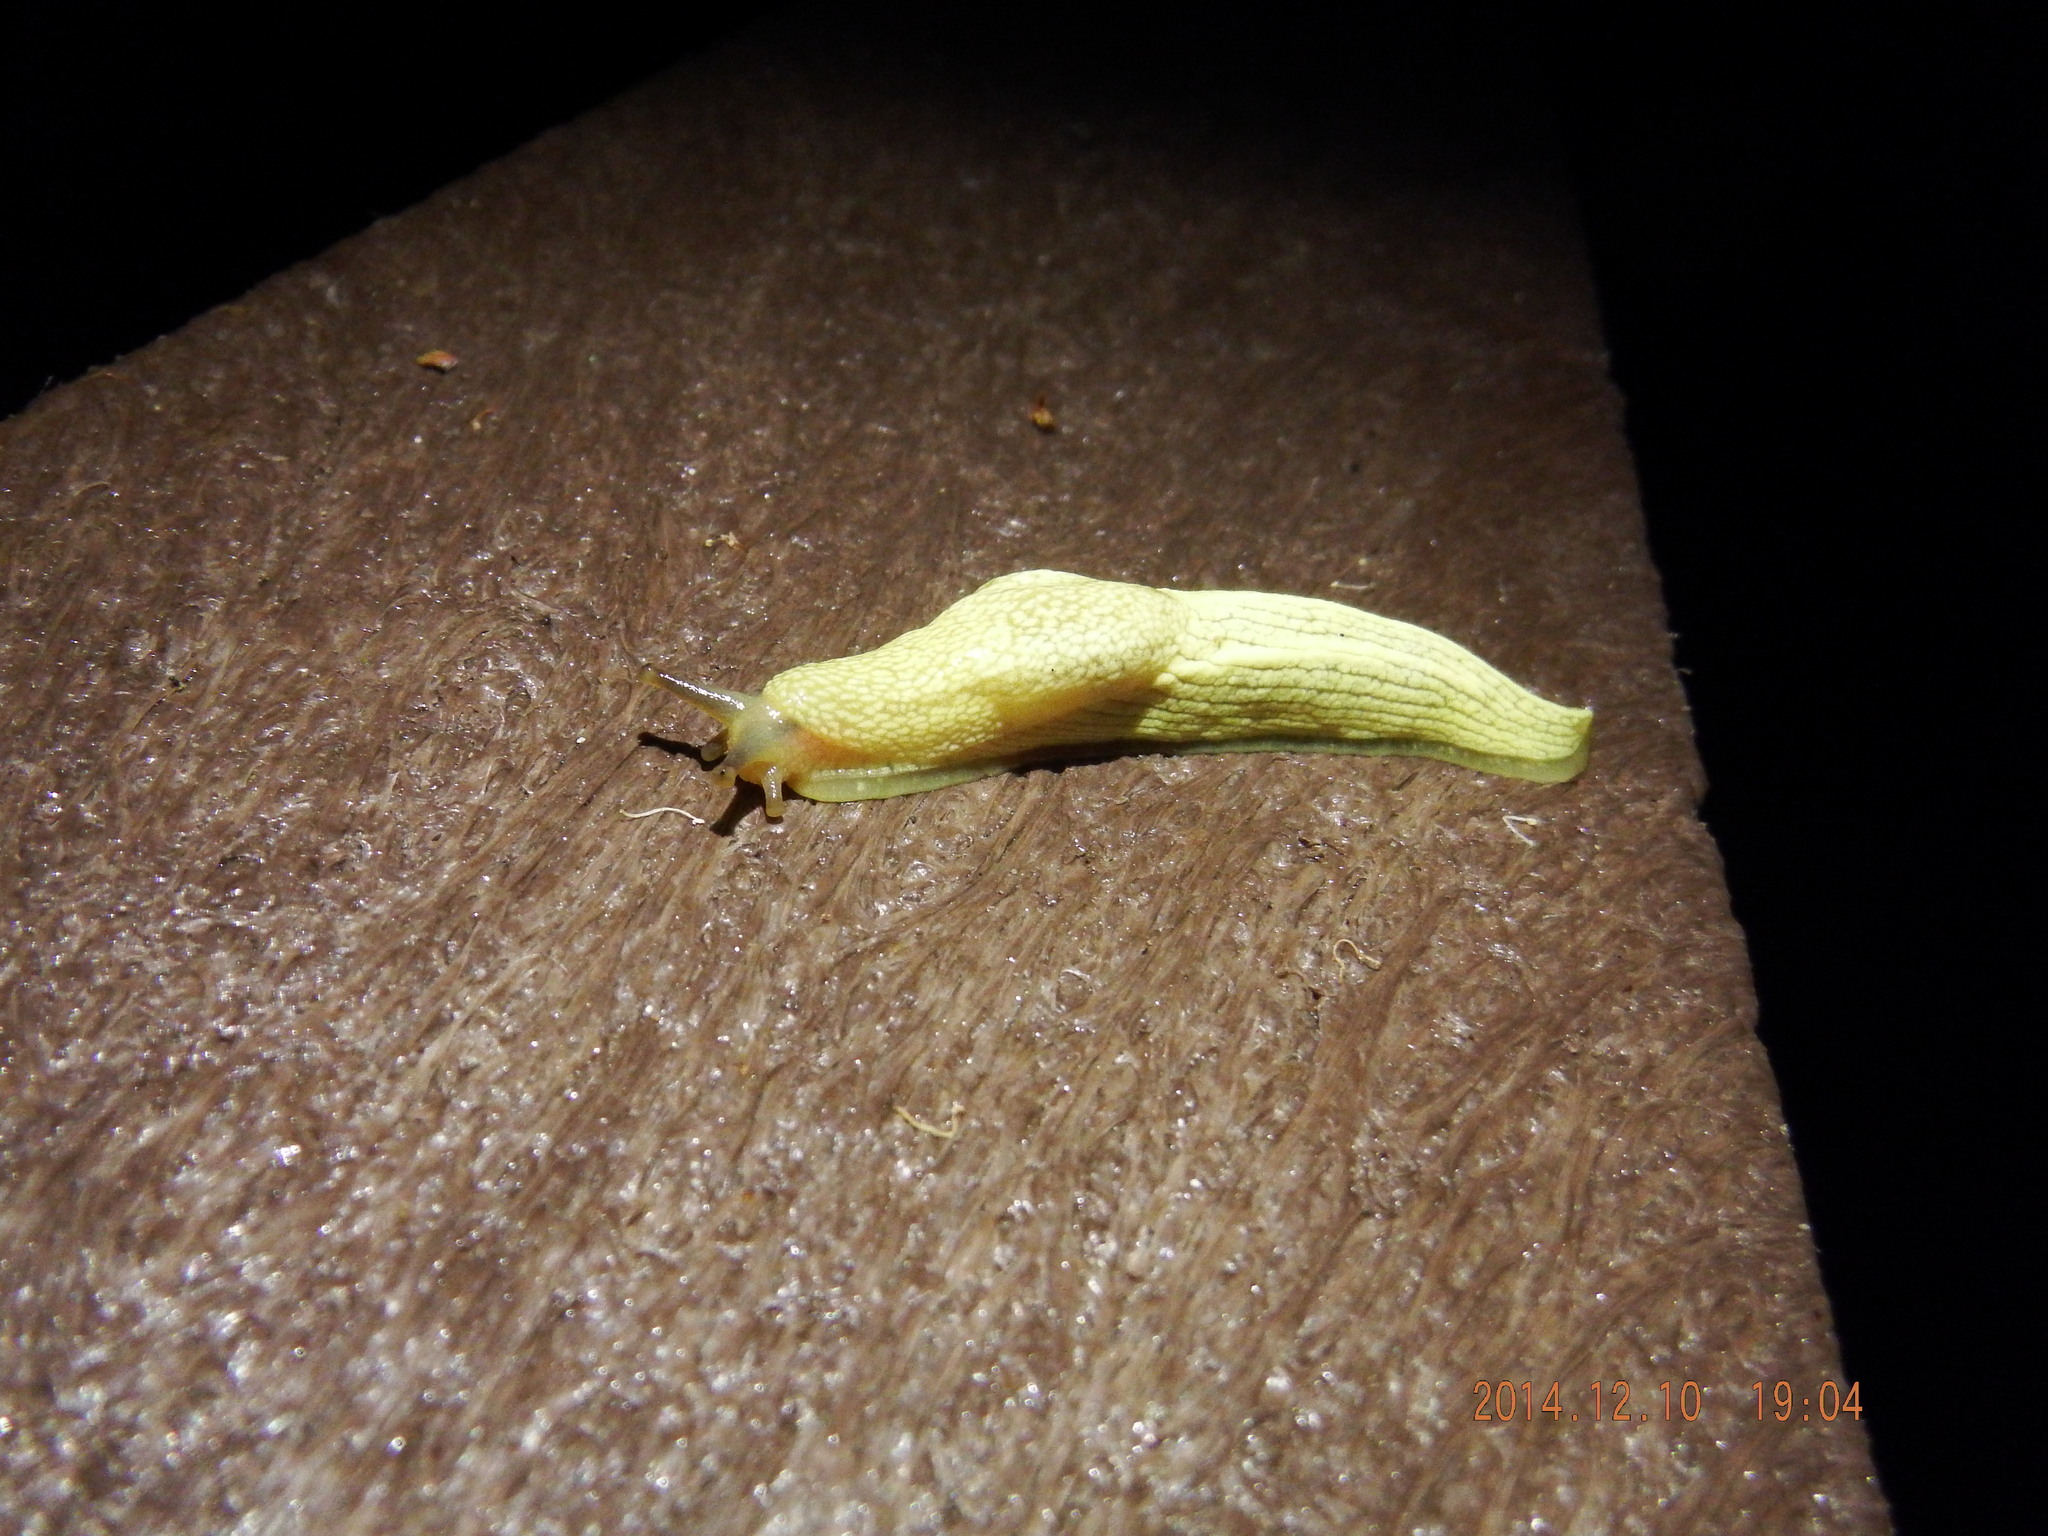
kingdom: Animalia
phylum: Mollusca
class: Gastropoda
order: Stylommatophora
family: Urocyclidae
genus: Elisolimax
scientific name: Elisolimax flavescens
